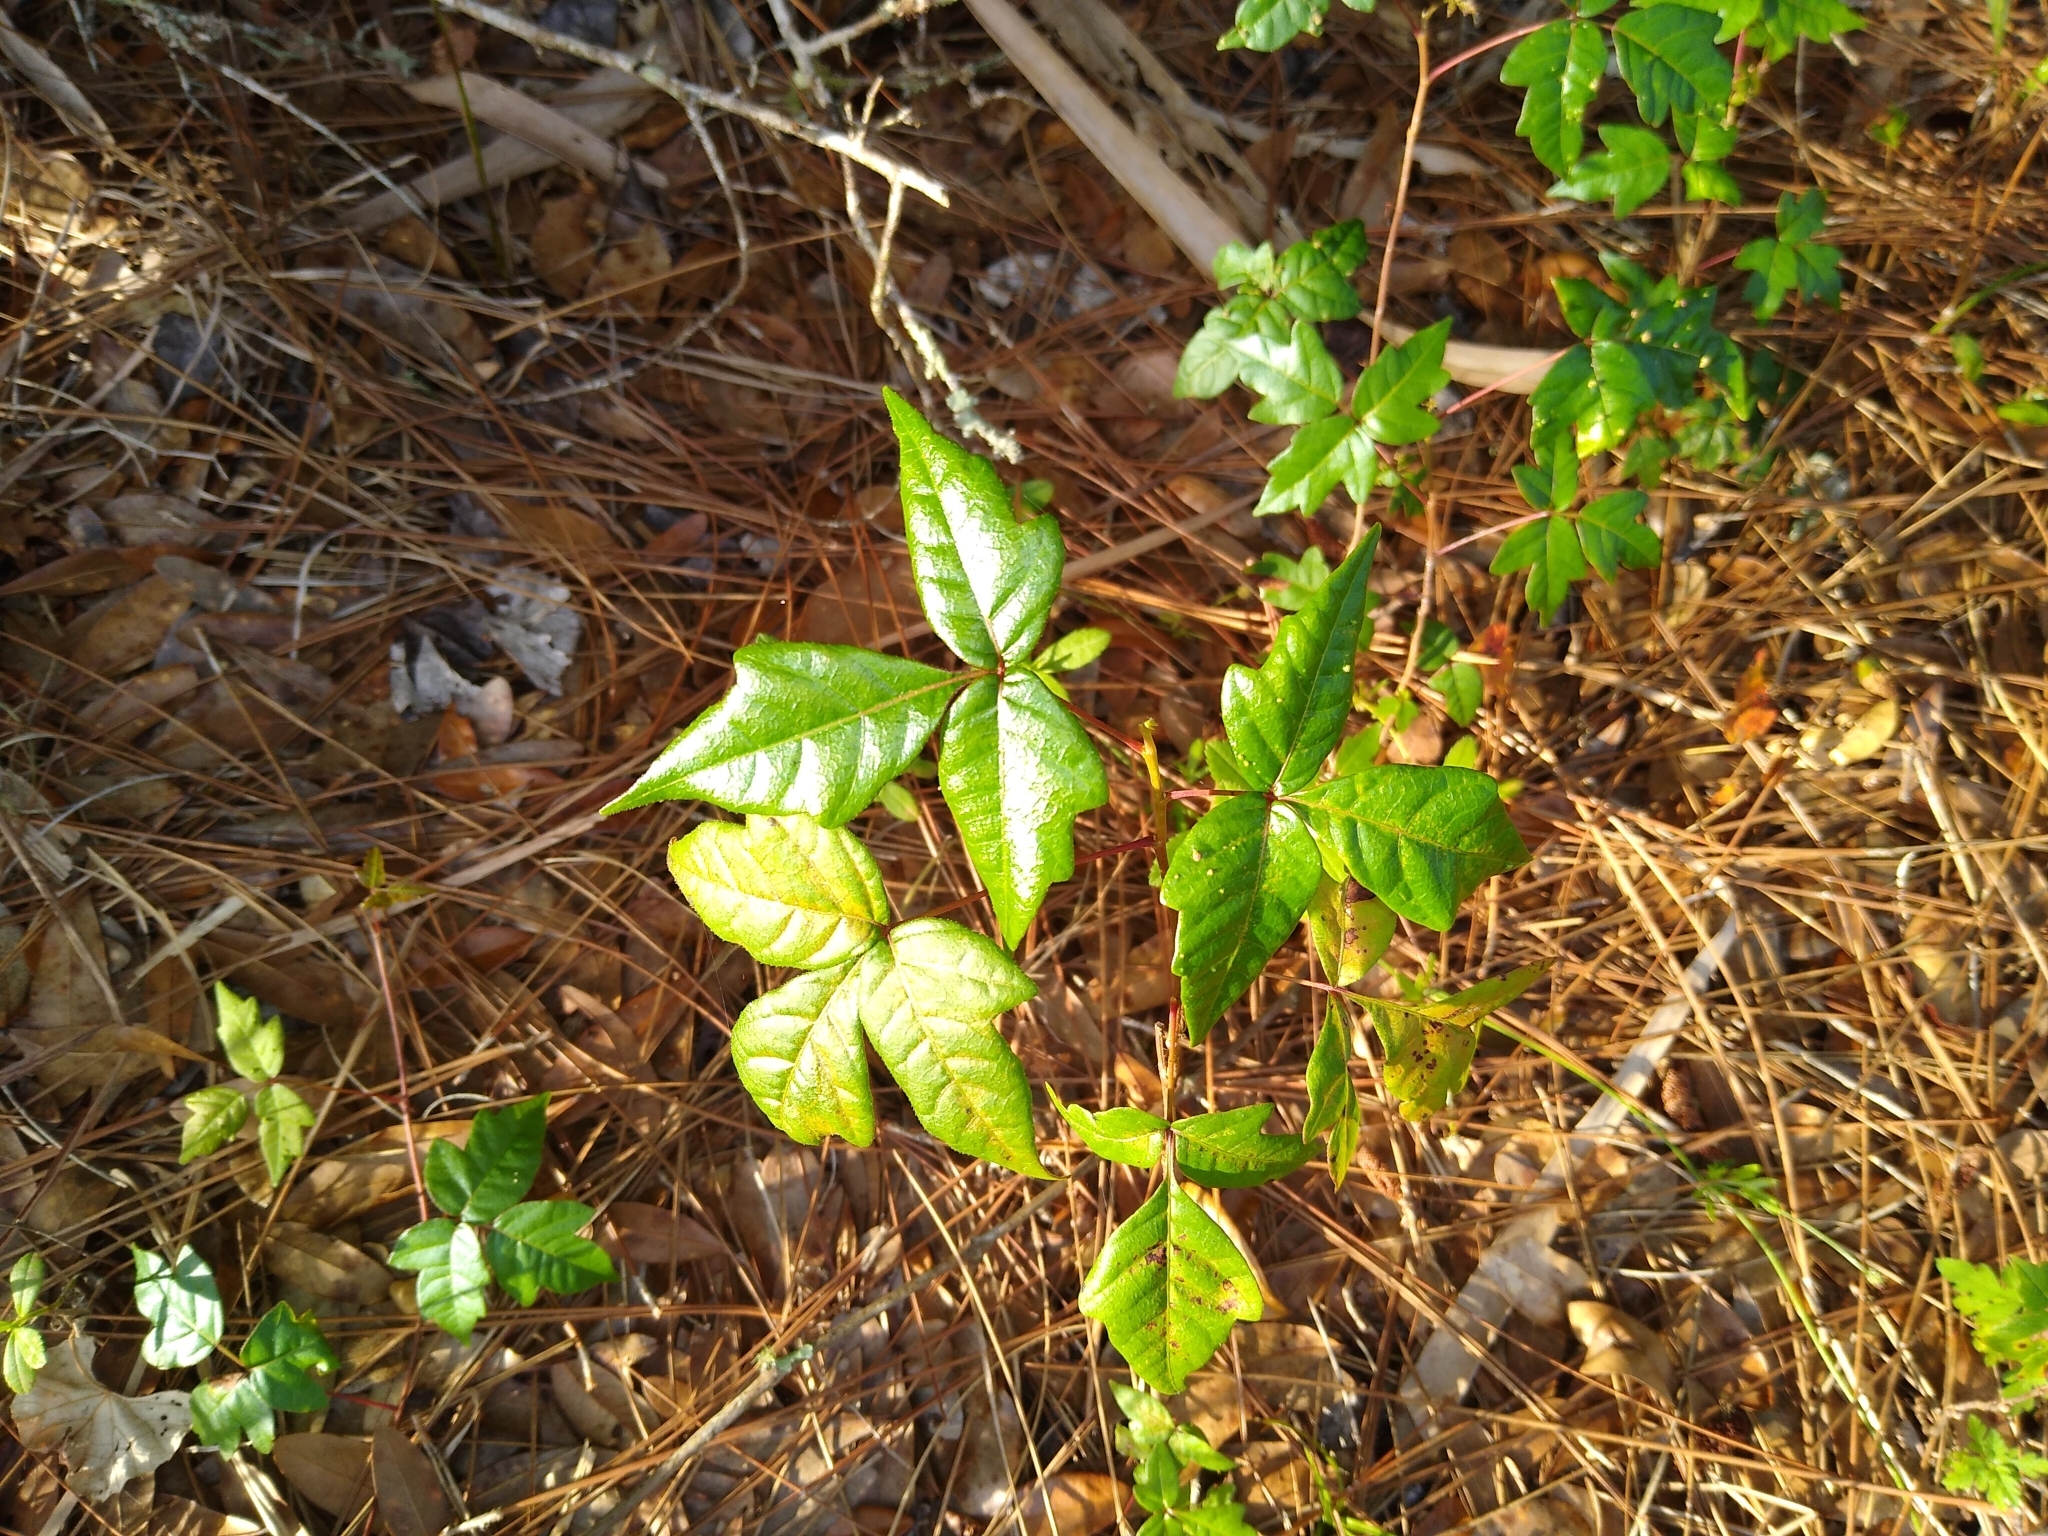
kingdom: Plantae
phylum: Tracheophyta
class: Magnoliopsida
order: Sapindales
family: Anacardiaceae
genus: Toxicodendron
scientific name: Toxicodendron radicans
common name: Poison ivy
